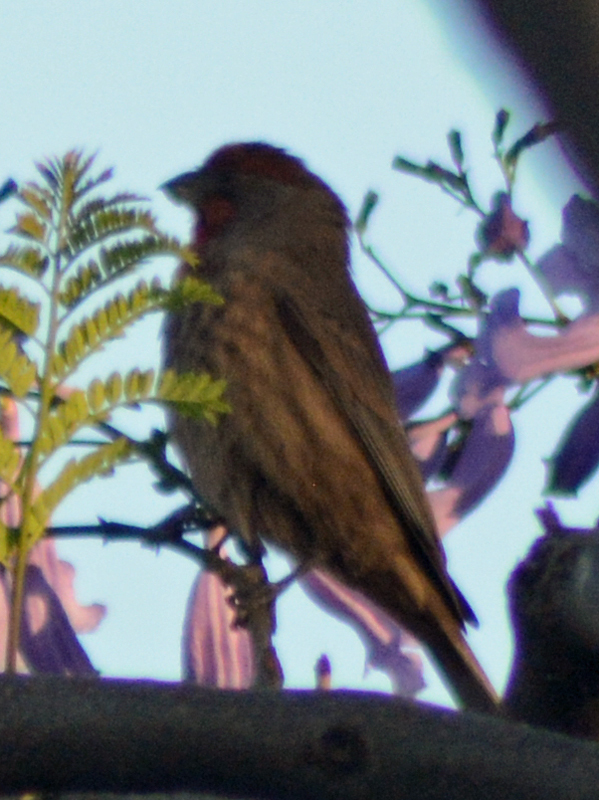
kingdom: Animalia
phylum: Chordata
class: Aves
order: Passeriformes
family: Fringillidae
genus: Haemorhous
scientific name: Haemorhous mexicanus
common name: House finch
